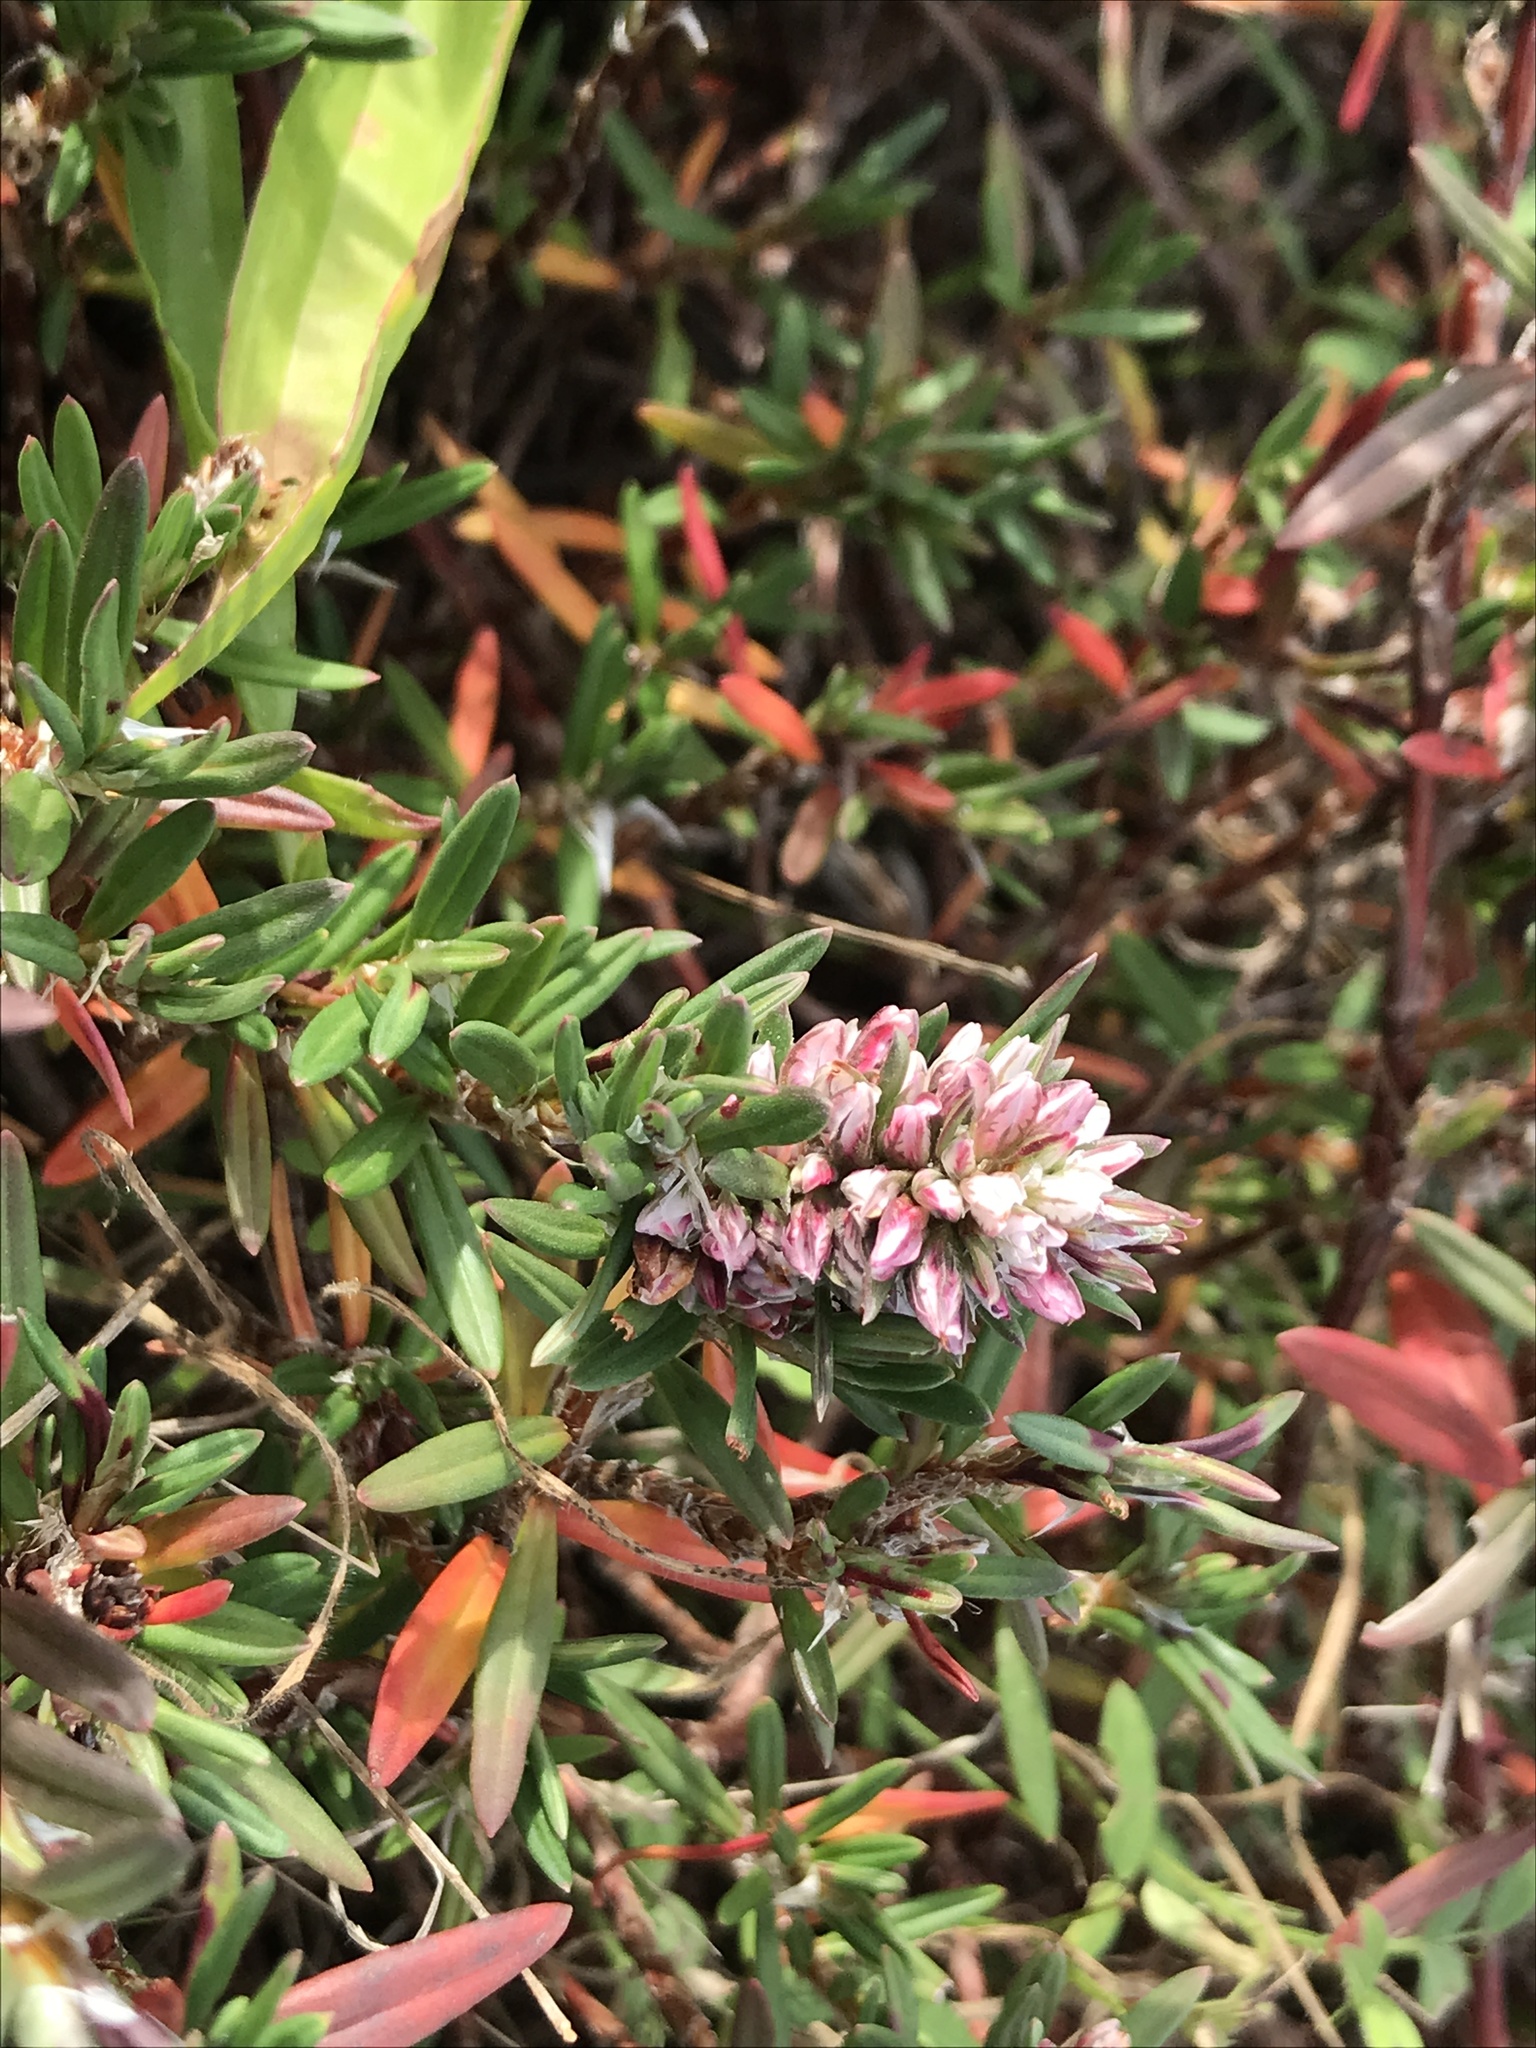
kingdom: Plantae
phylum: Tracheophyta
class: Magnoliopsida
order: Caryophyllales
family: Polygonaceae
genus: Polygonum
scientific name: Polygonum paronychia
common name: Dune knotweed
